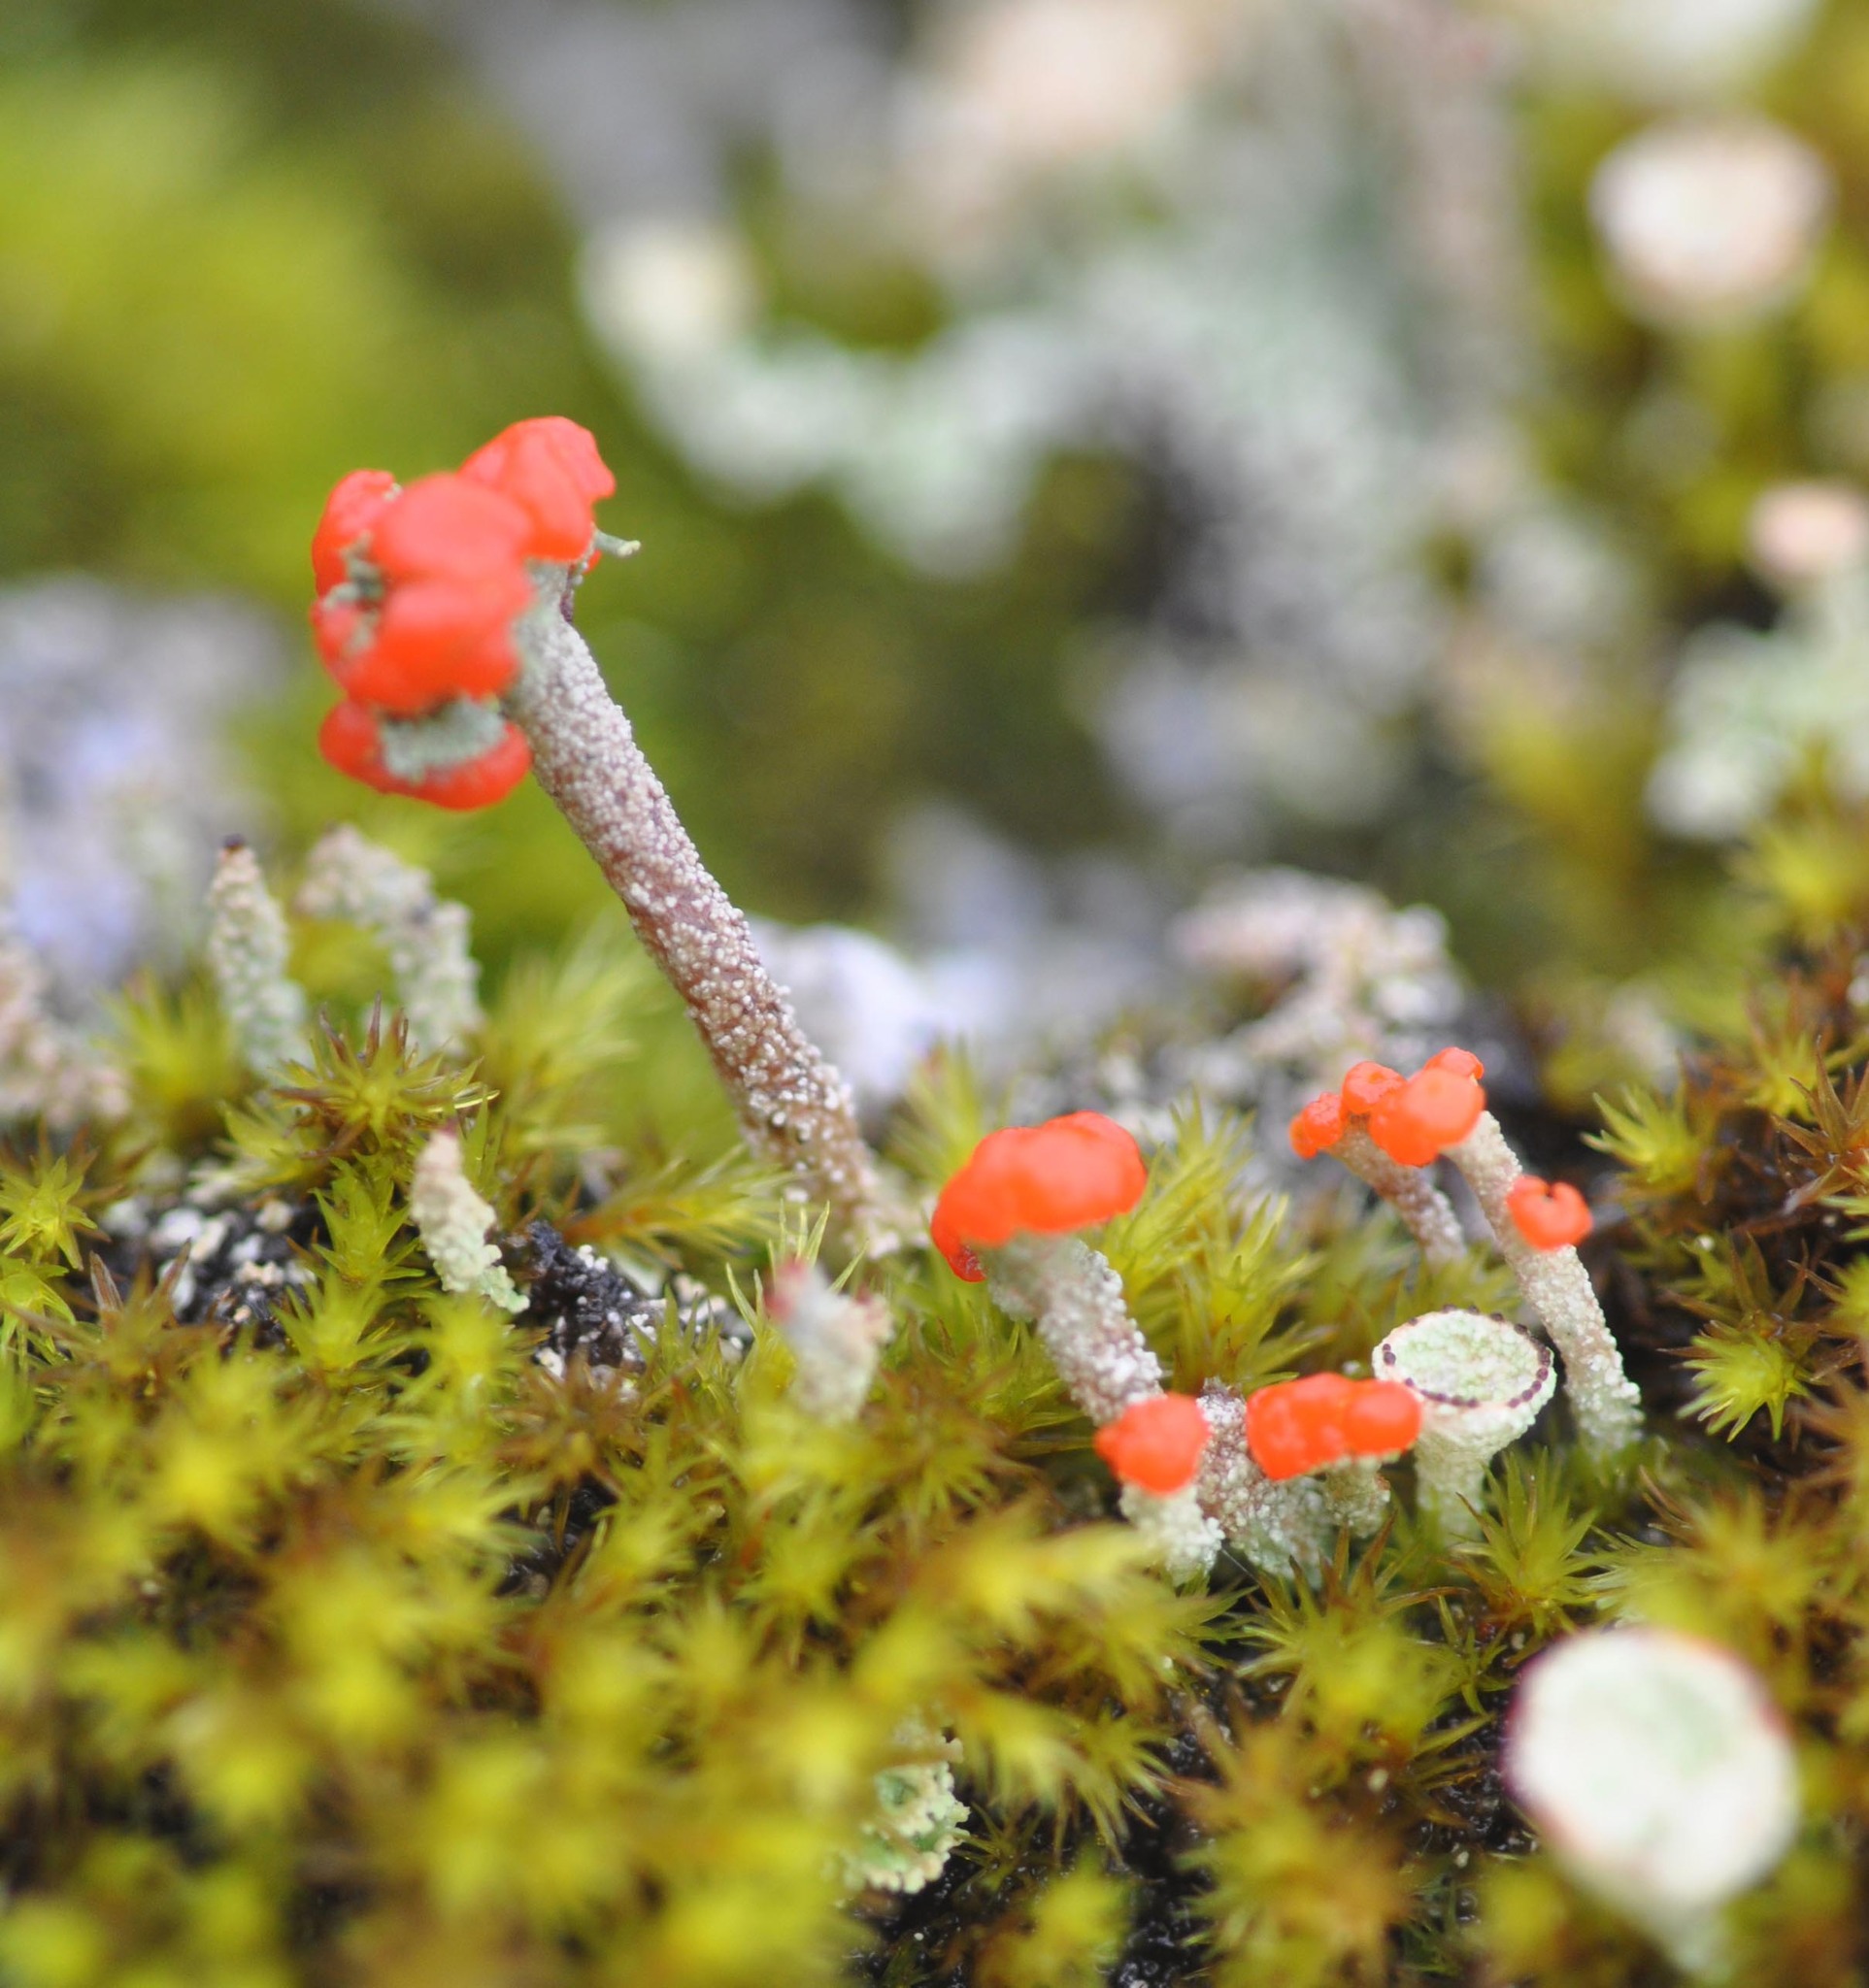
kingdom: Fungi
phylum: Ascomycota
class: Lecanoromycetes
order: Lecanorales
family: Cladoniaceae
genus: Cladonia
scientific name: Cladonia floerkeana
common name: Gritty british soldiers lichen
